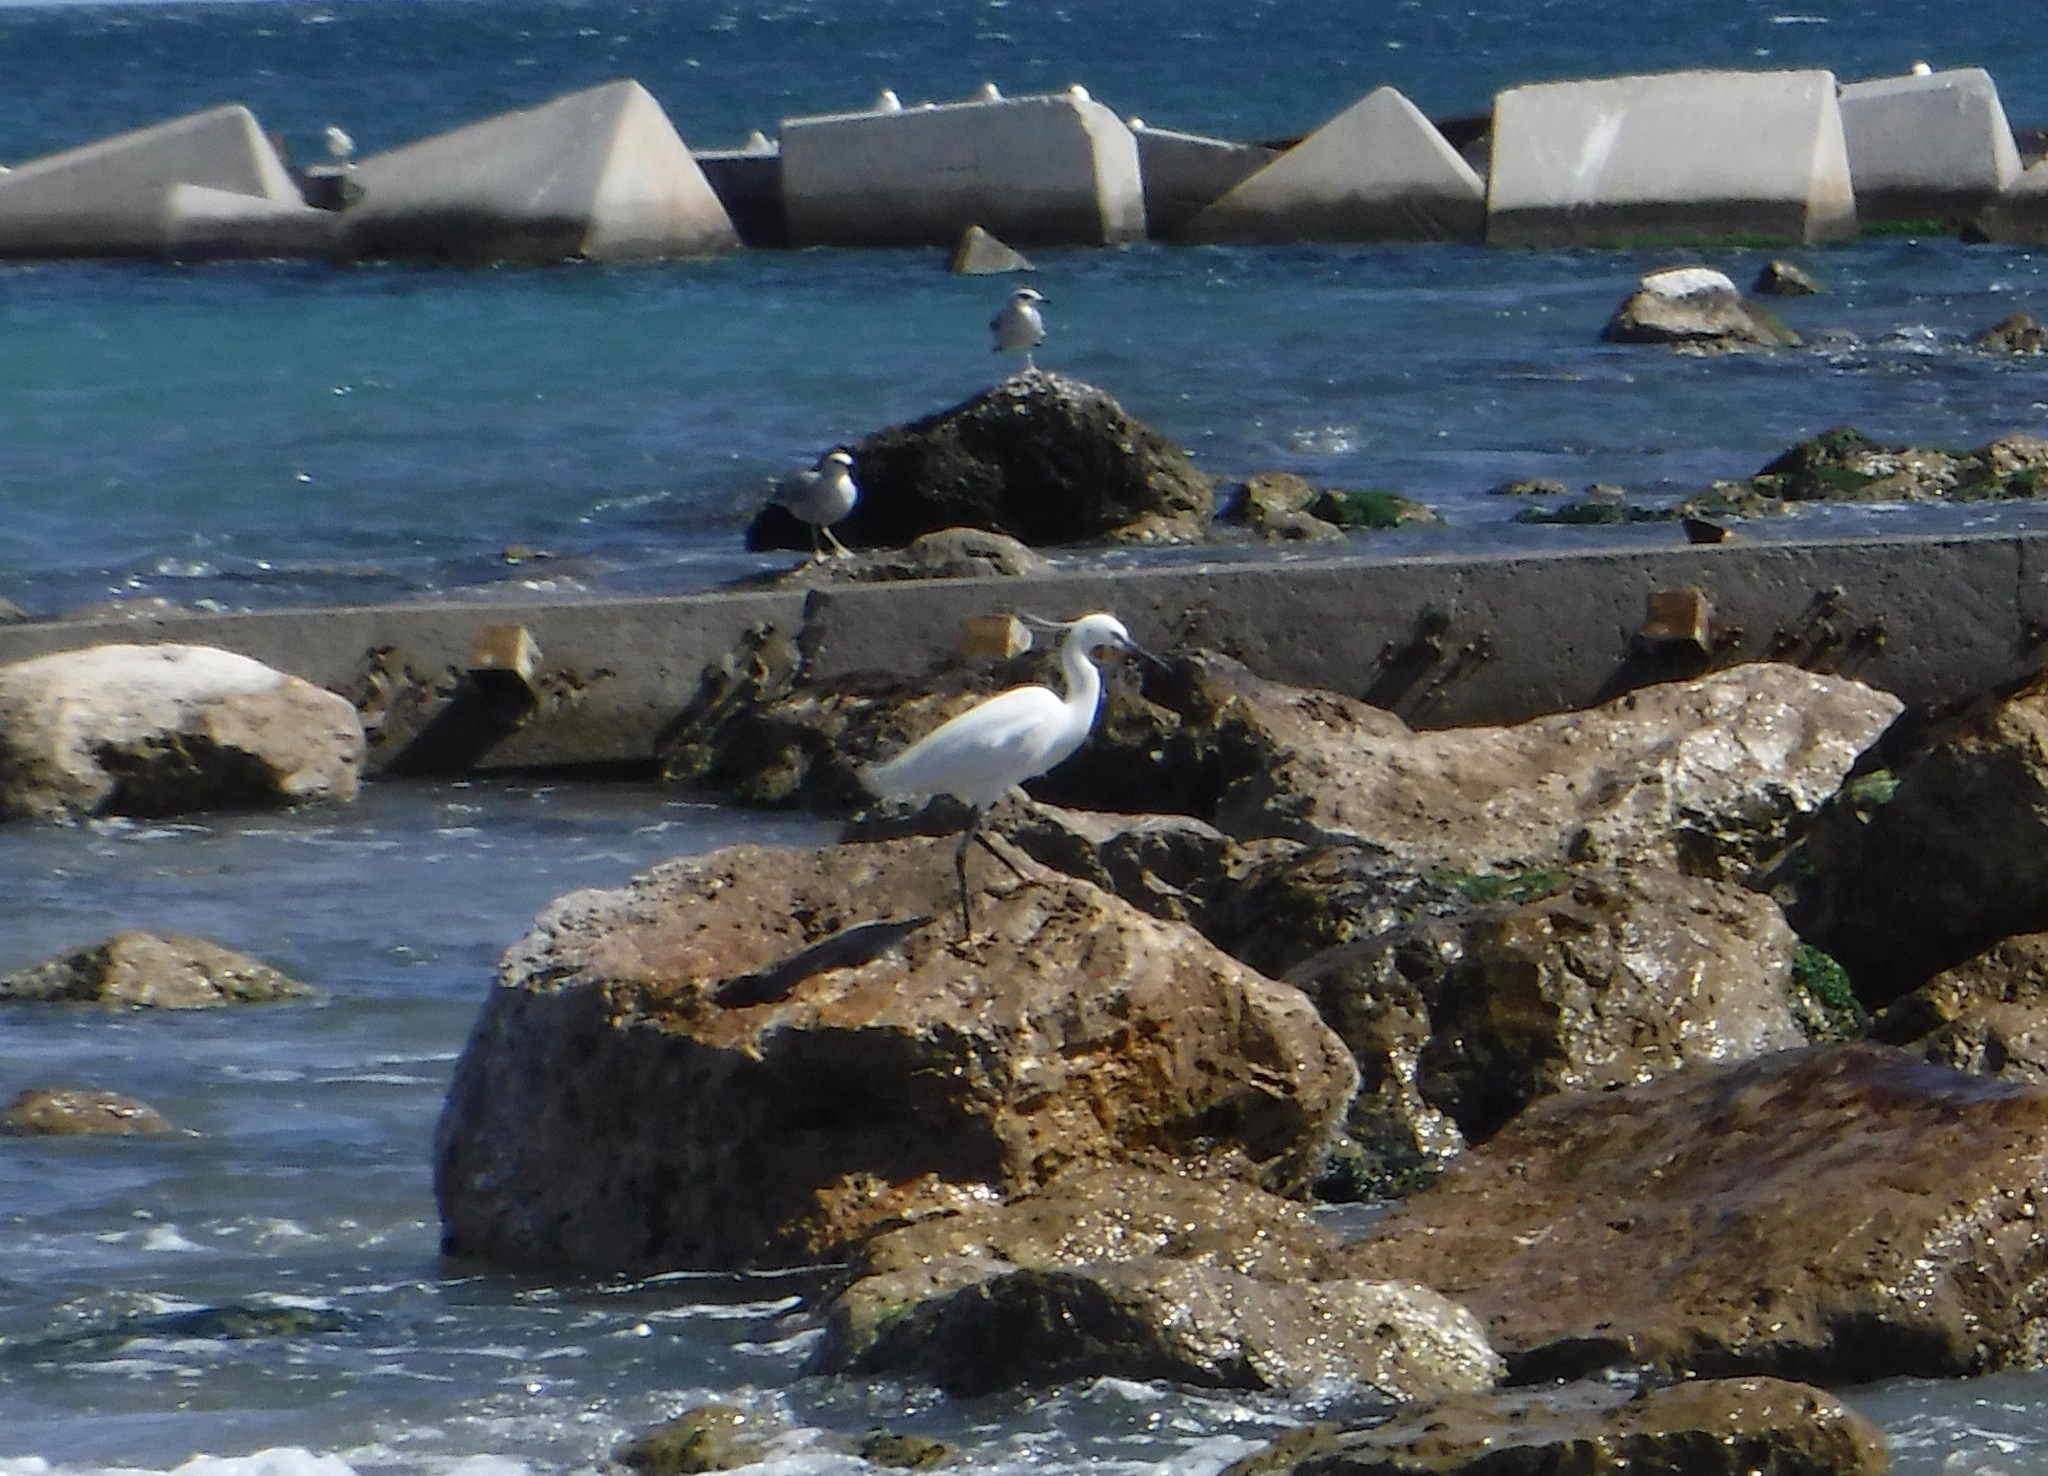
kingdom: Animalia
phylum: Chordata
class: Aves
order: Pelecaniformes
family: Ardeidae
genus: Egretta
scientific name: Egretta garzetta
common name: Little egret
